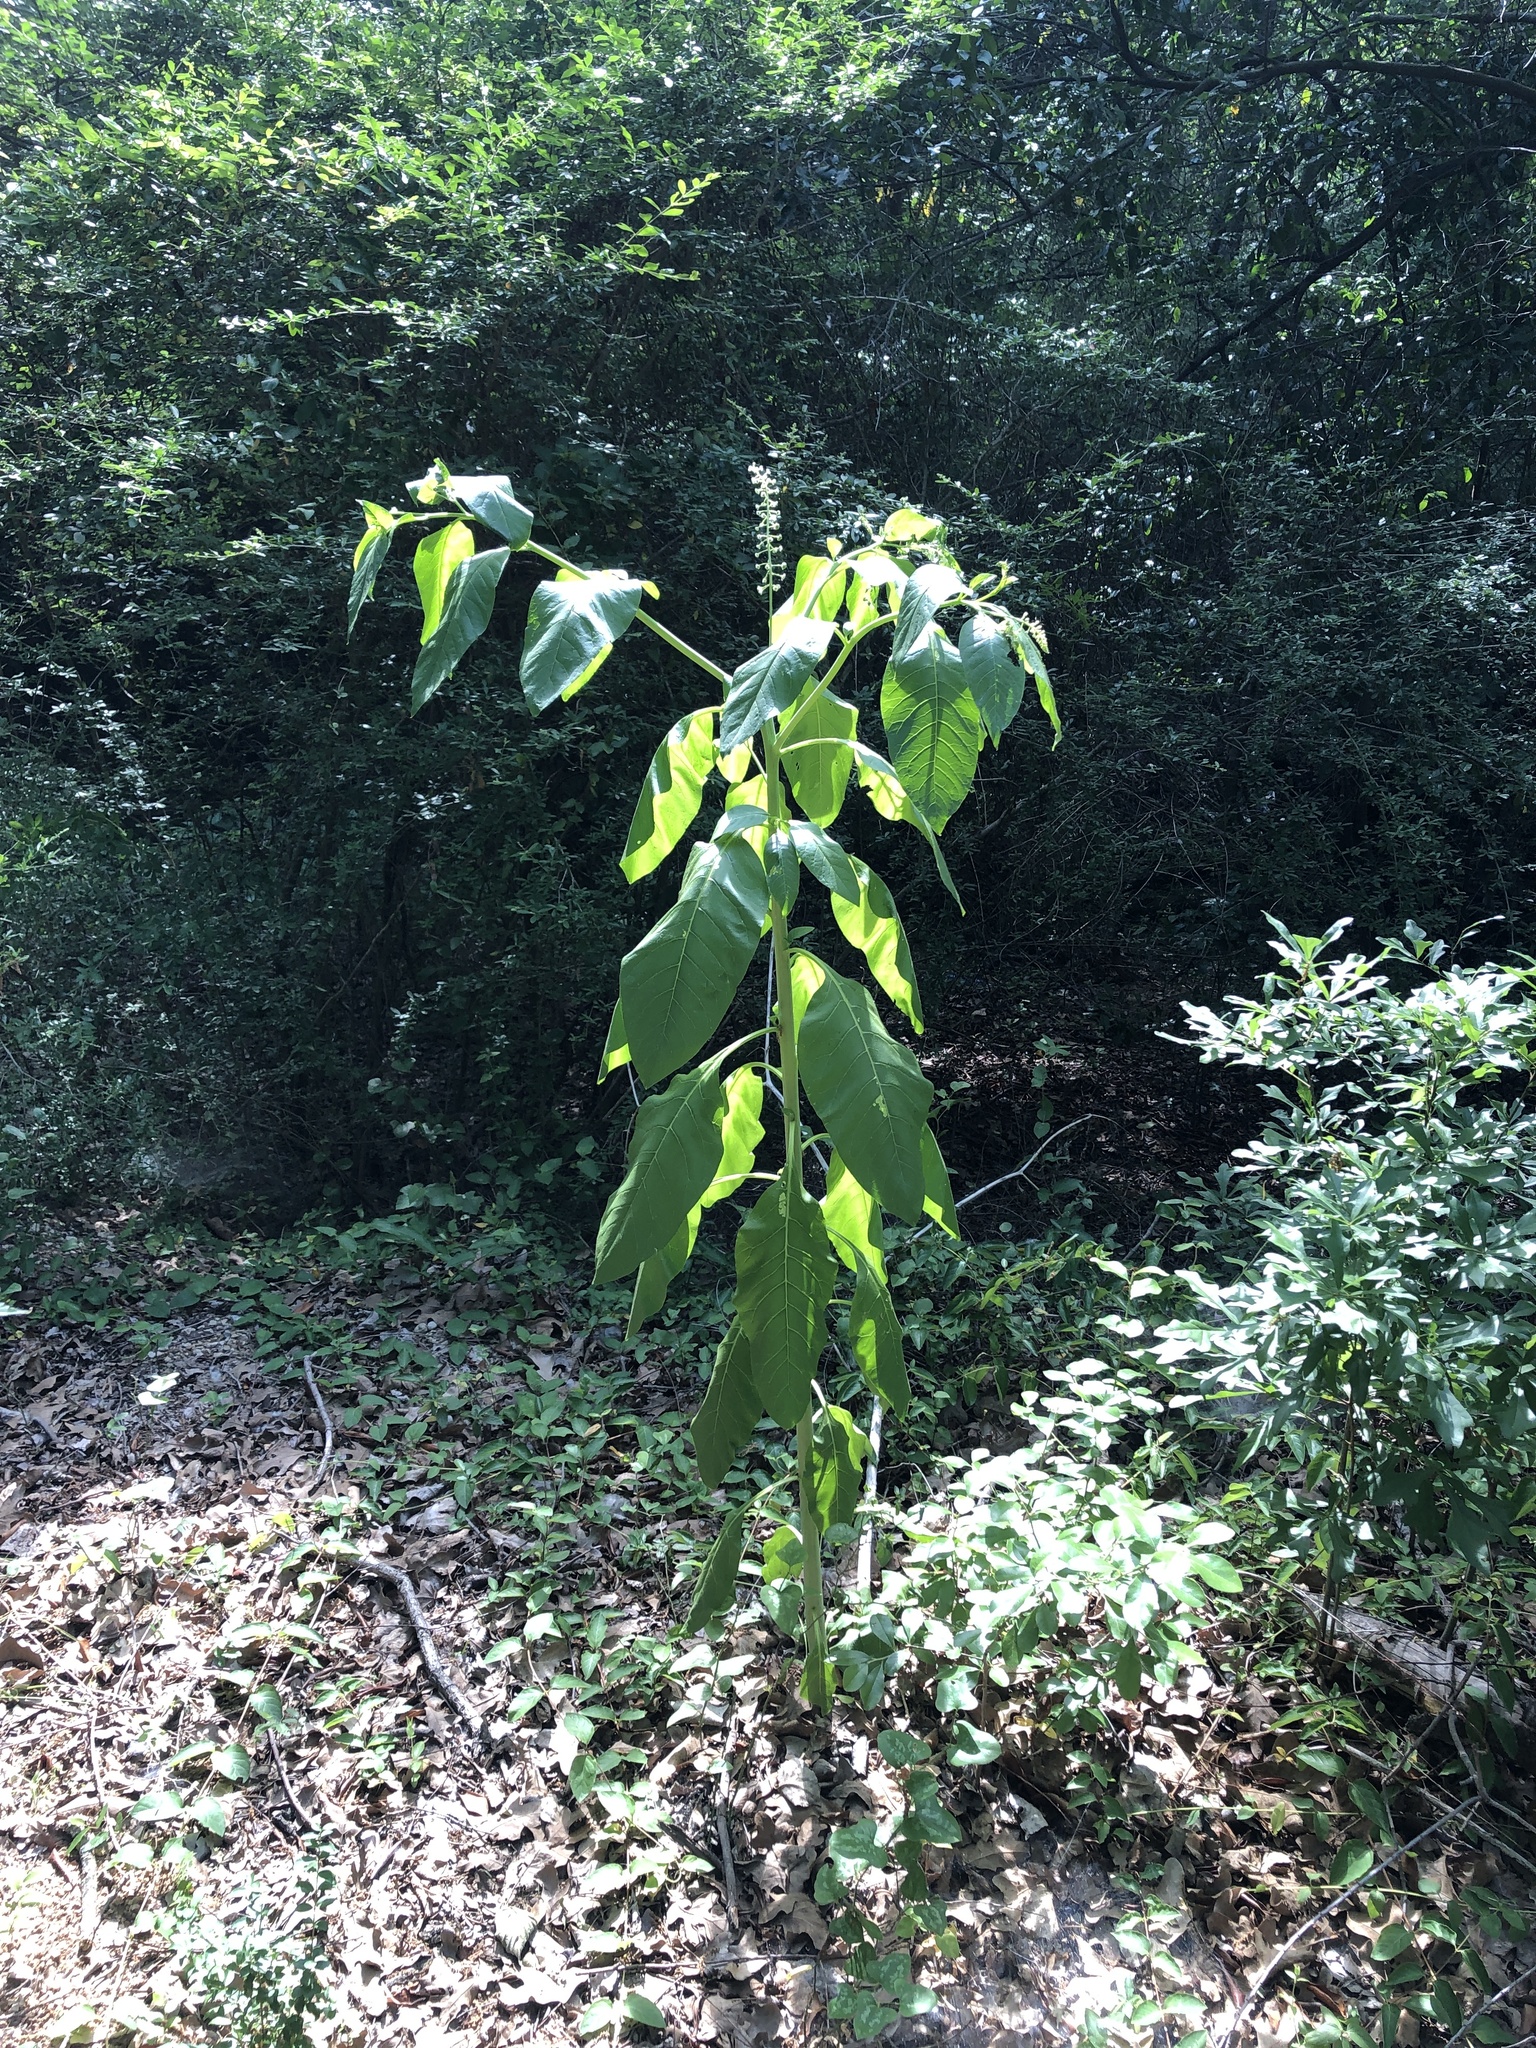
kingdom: Plantae
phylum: Tracheophyta
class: Magnoliopsida
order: Caryophyllales
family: Phytolaccaceae
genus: Phytolacca
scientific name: Phytolacca americana
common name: American pokeweed
